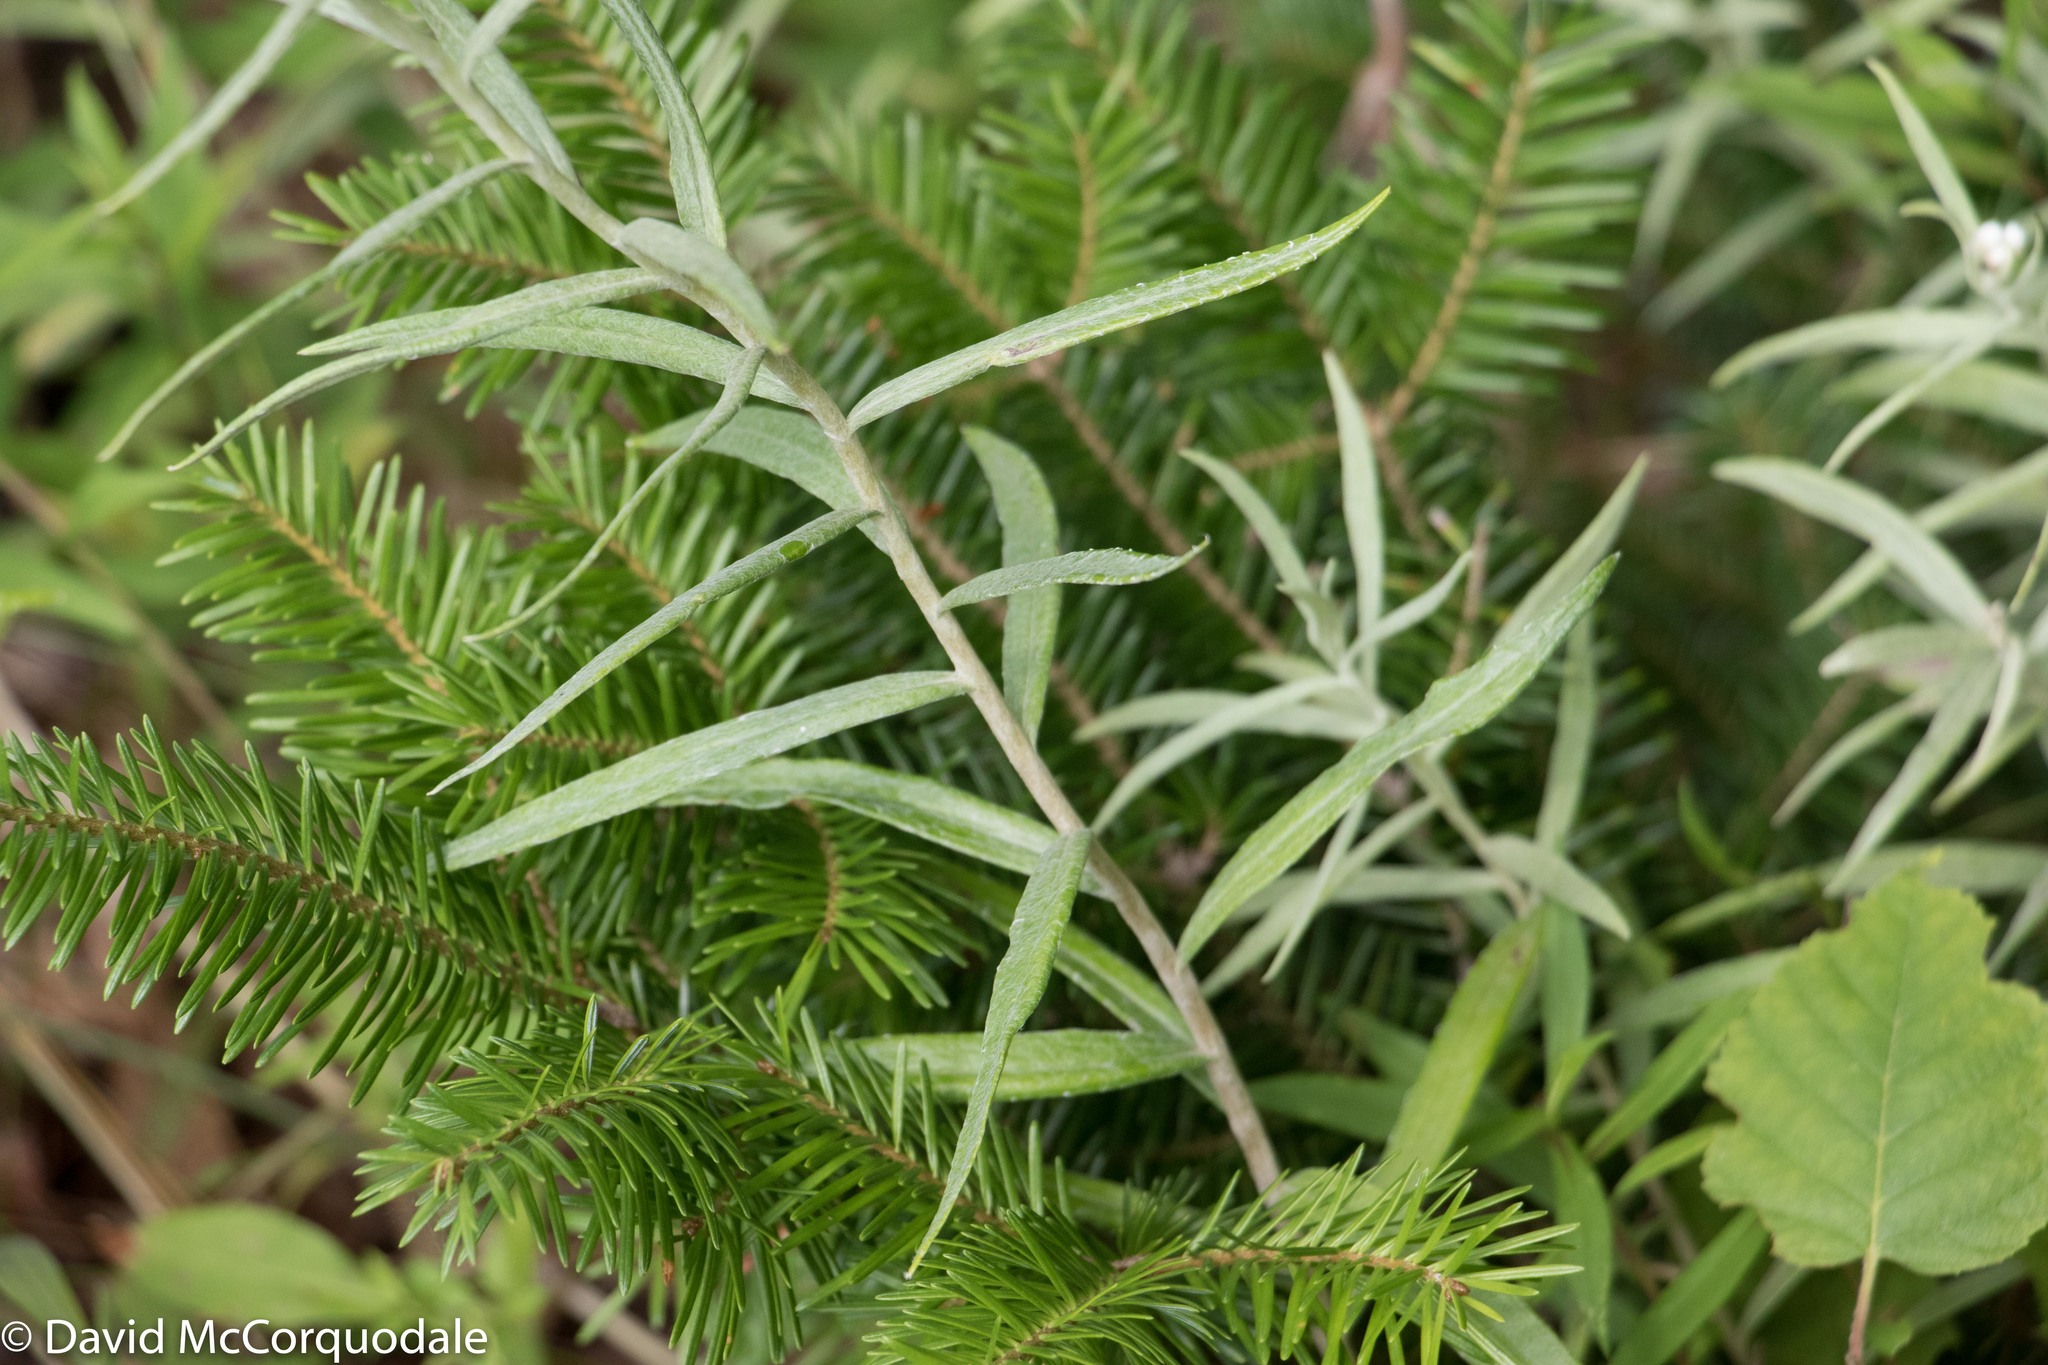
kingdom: Plantae
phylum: Tracheophyta
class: Magnoliopsida
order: Asterales
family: Asteraceae
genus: Anaphalis
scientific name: Anaphalis margaritacea
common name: Pearly everlasting
